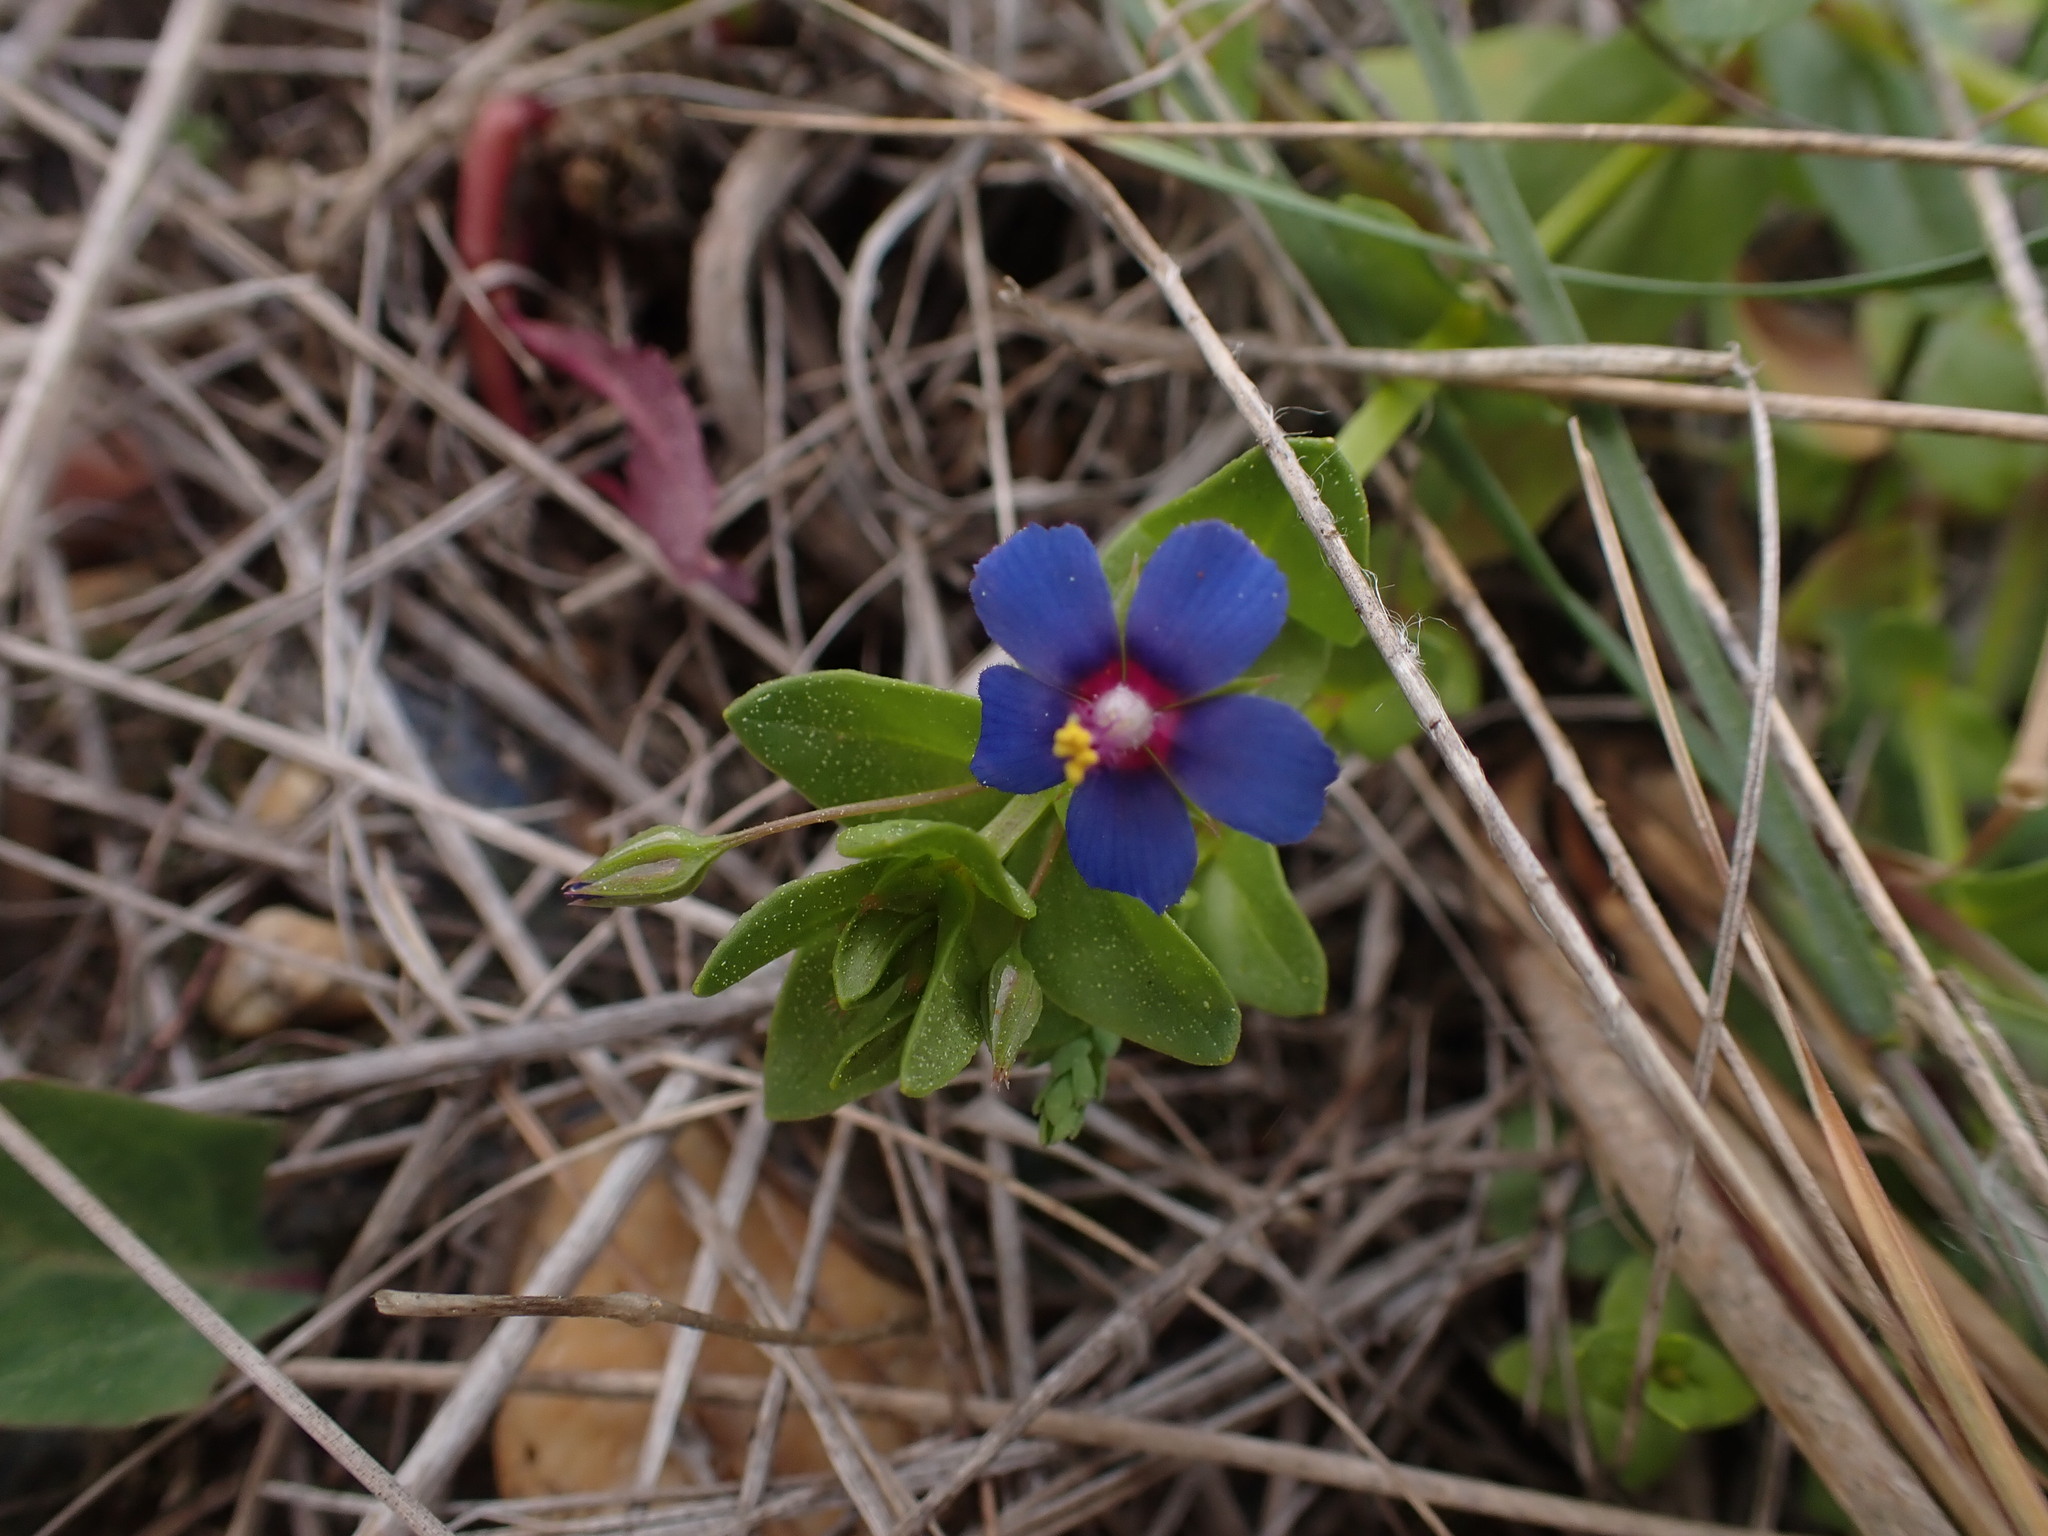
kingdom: Plantae
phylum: Tracheophyta
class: Magnoliopsida
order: Ericales
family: Primulaceae
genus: Lysimachia
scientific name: Lysimachia loeflingii
